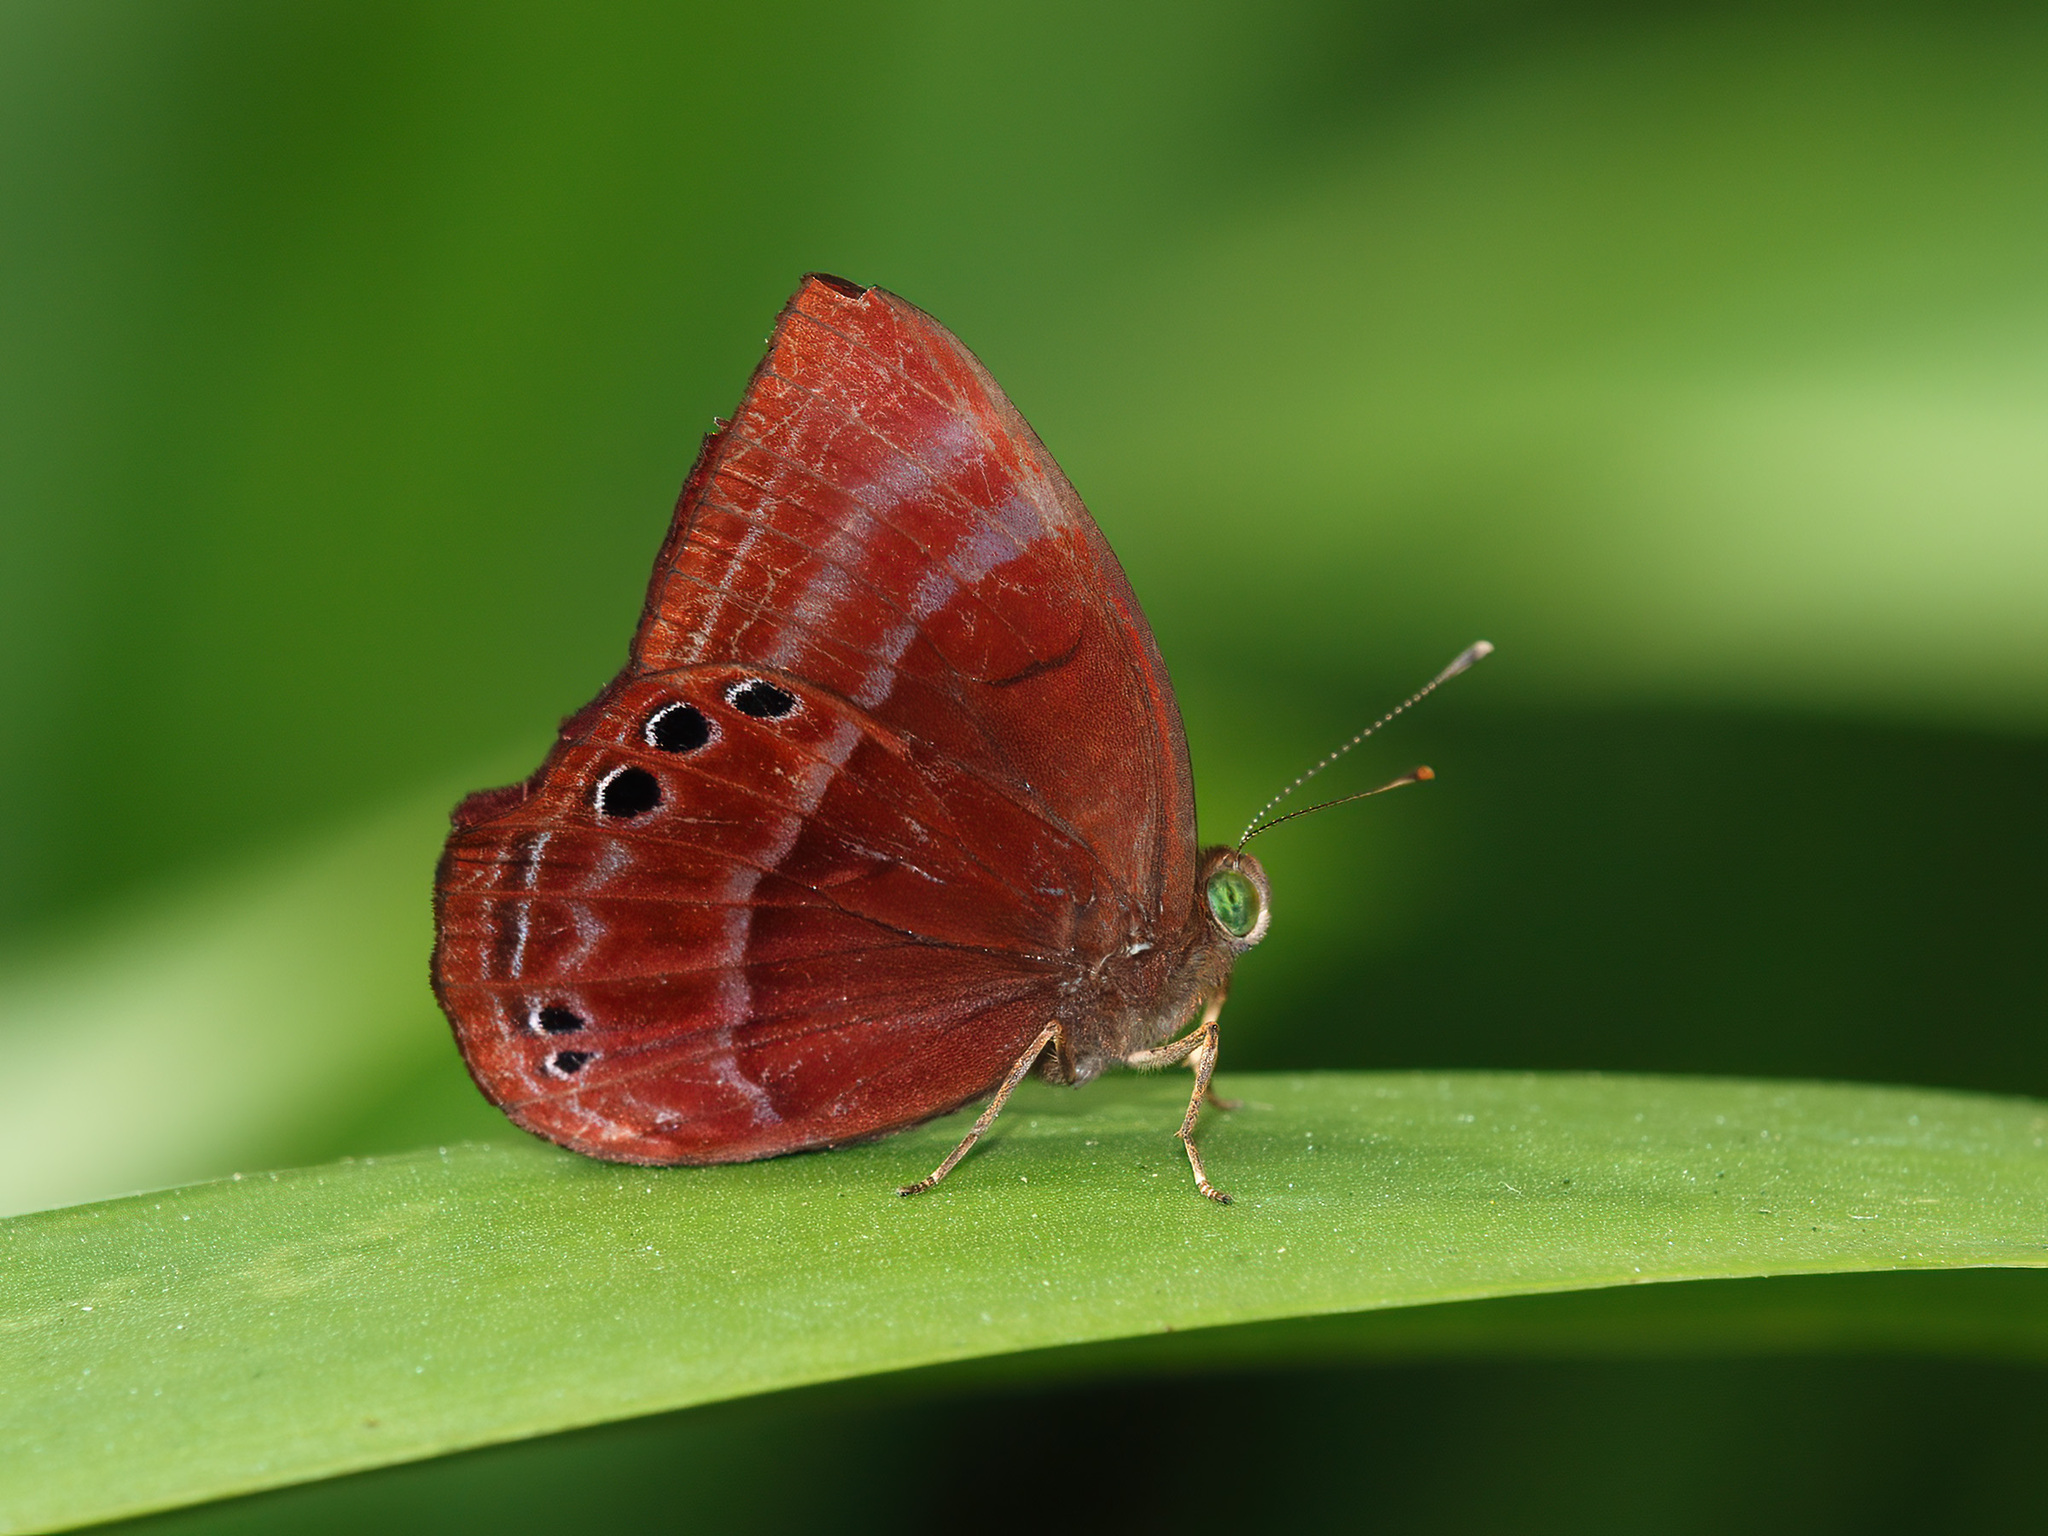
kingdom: Animalia
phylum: Arthropoda
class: Insecta
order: Lepidoptera
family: Lycaenidae
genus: Abisara
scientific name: Abisara saturata
